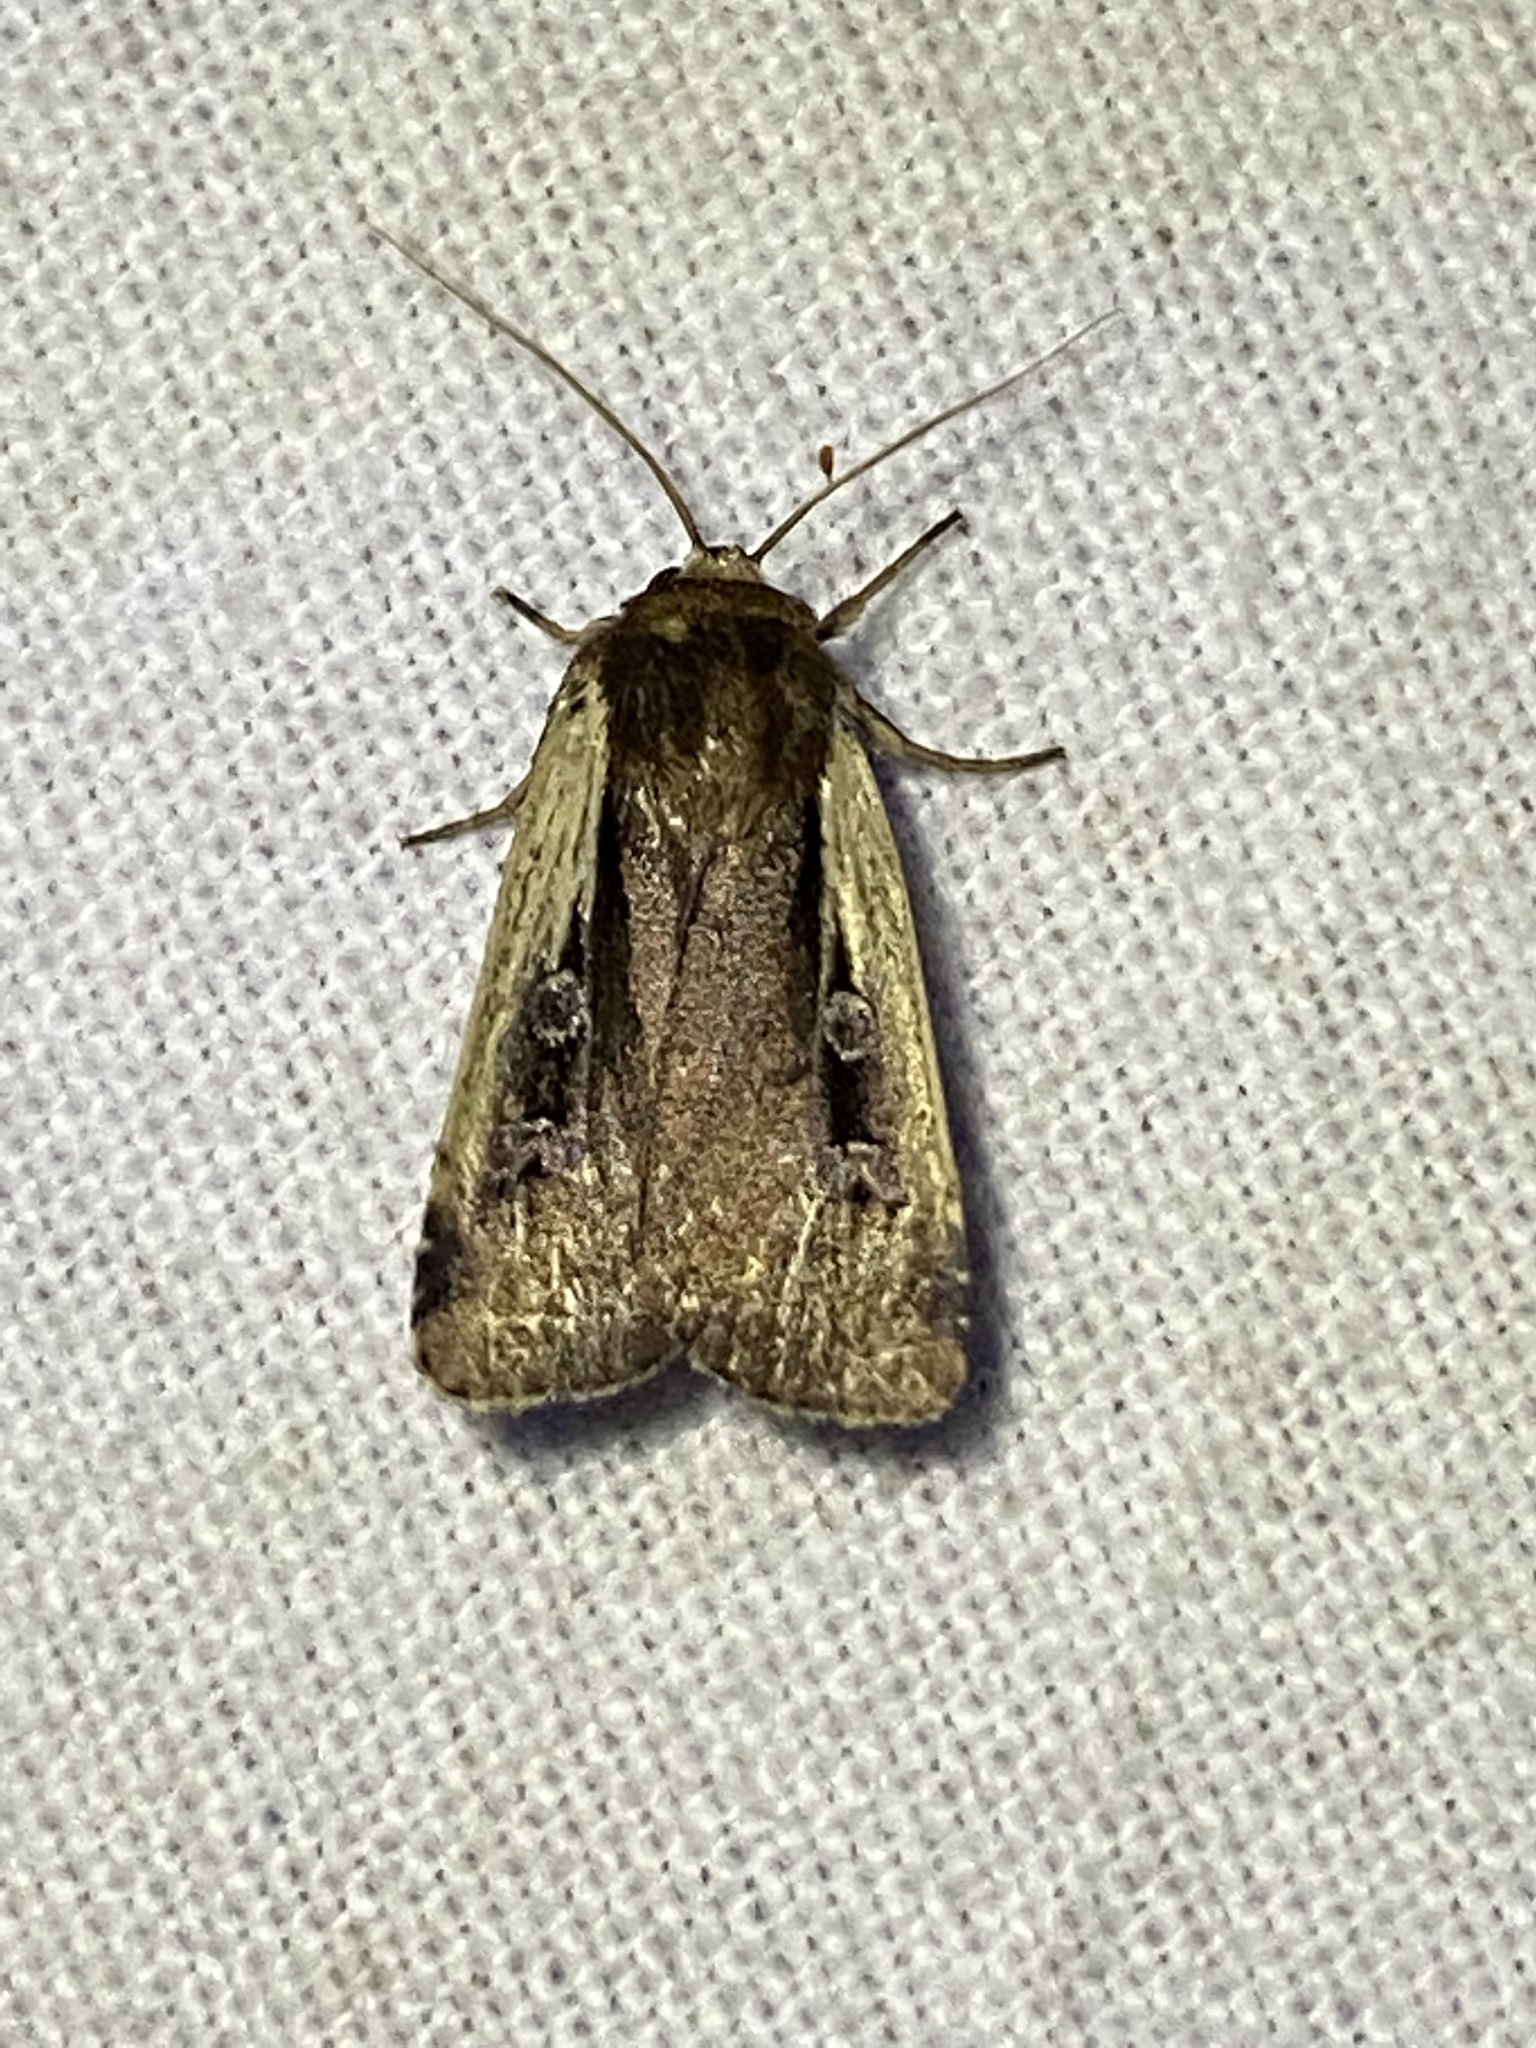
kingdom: Animalia
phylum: Arthropoda
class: Insecta
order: Lepidoptera
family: Noctuidae
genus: Ochropleura
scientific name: Ochropleura implecta
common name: Flame-shouldered dart
